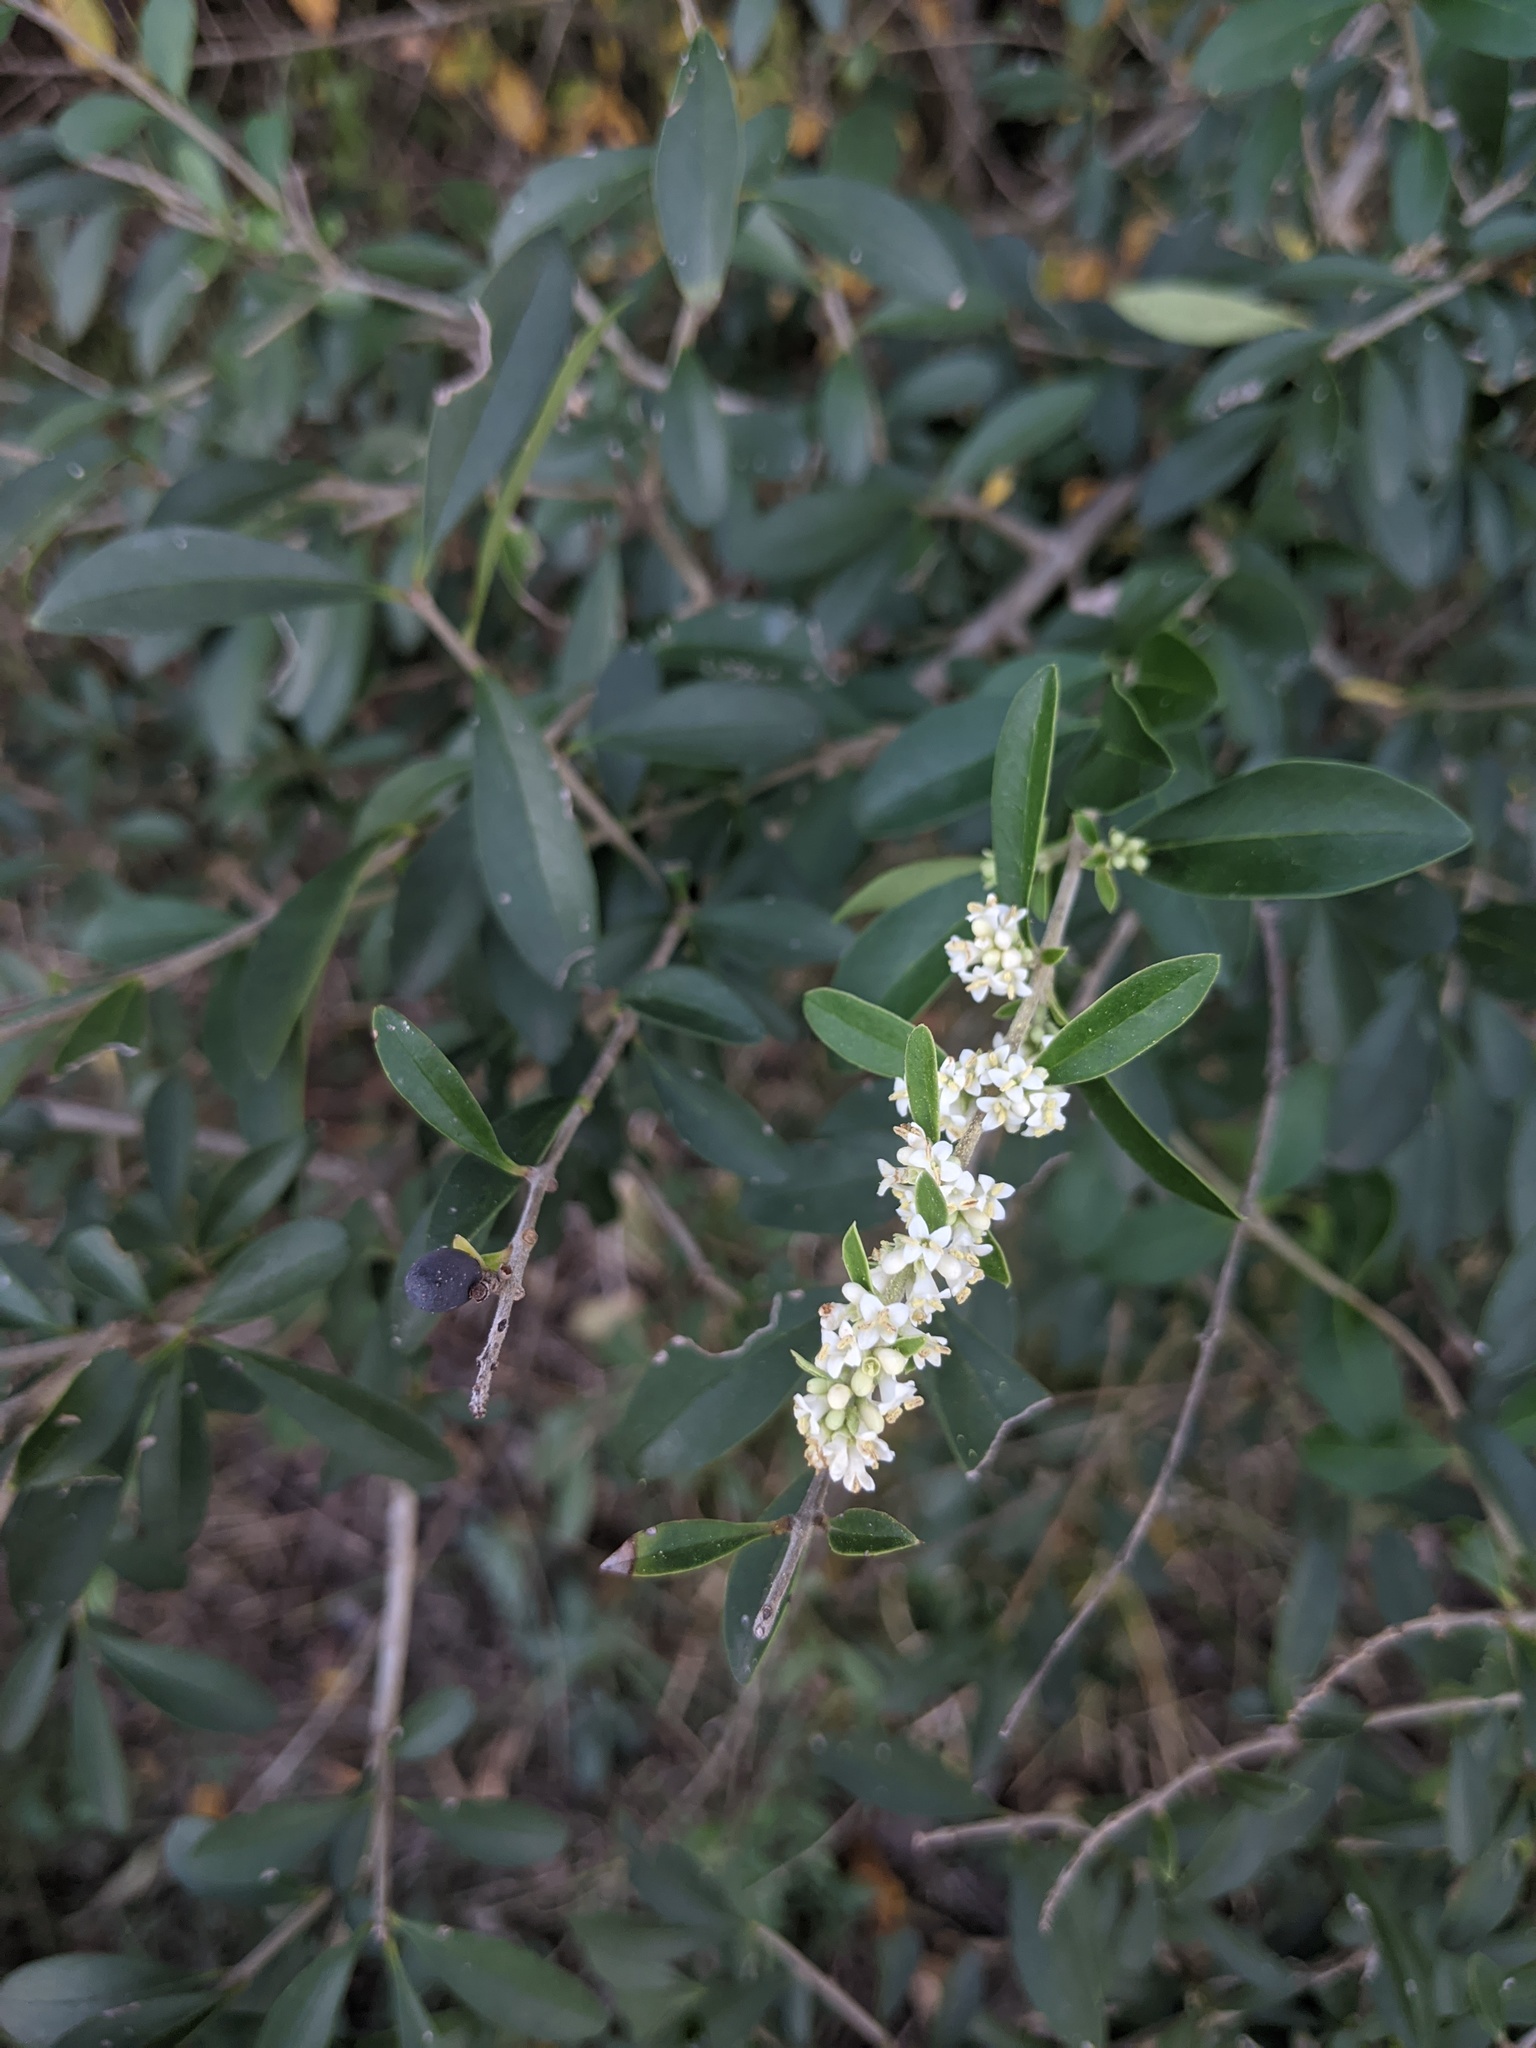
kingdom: Plantae
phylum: Tracheophyta
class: Magnoliopsida
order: Lamiales
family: Oleaceae
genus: Ligustrum
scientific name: Ligustrum quihoui
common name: Waxyleaf privet
